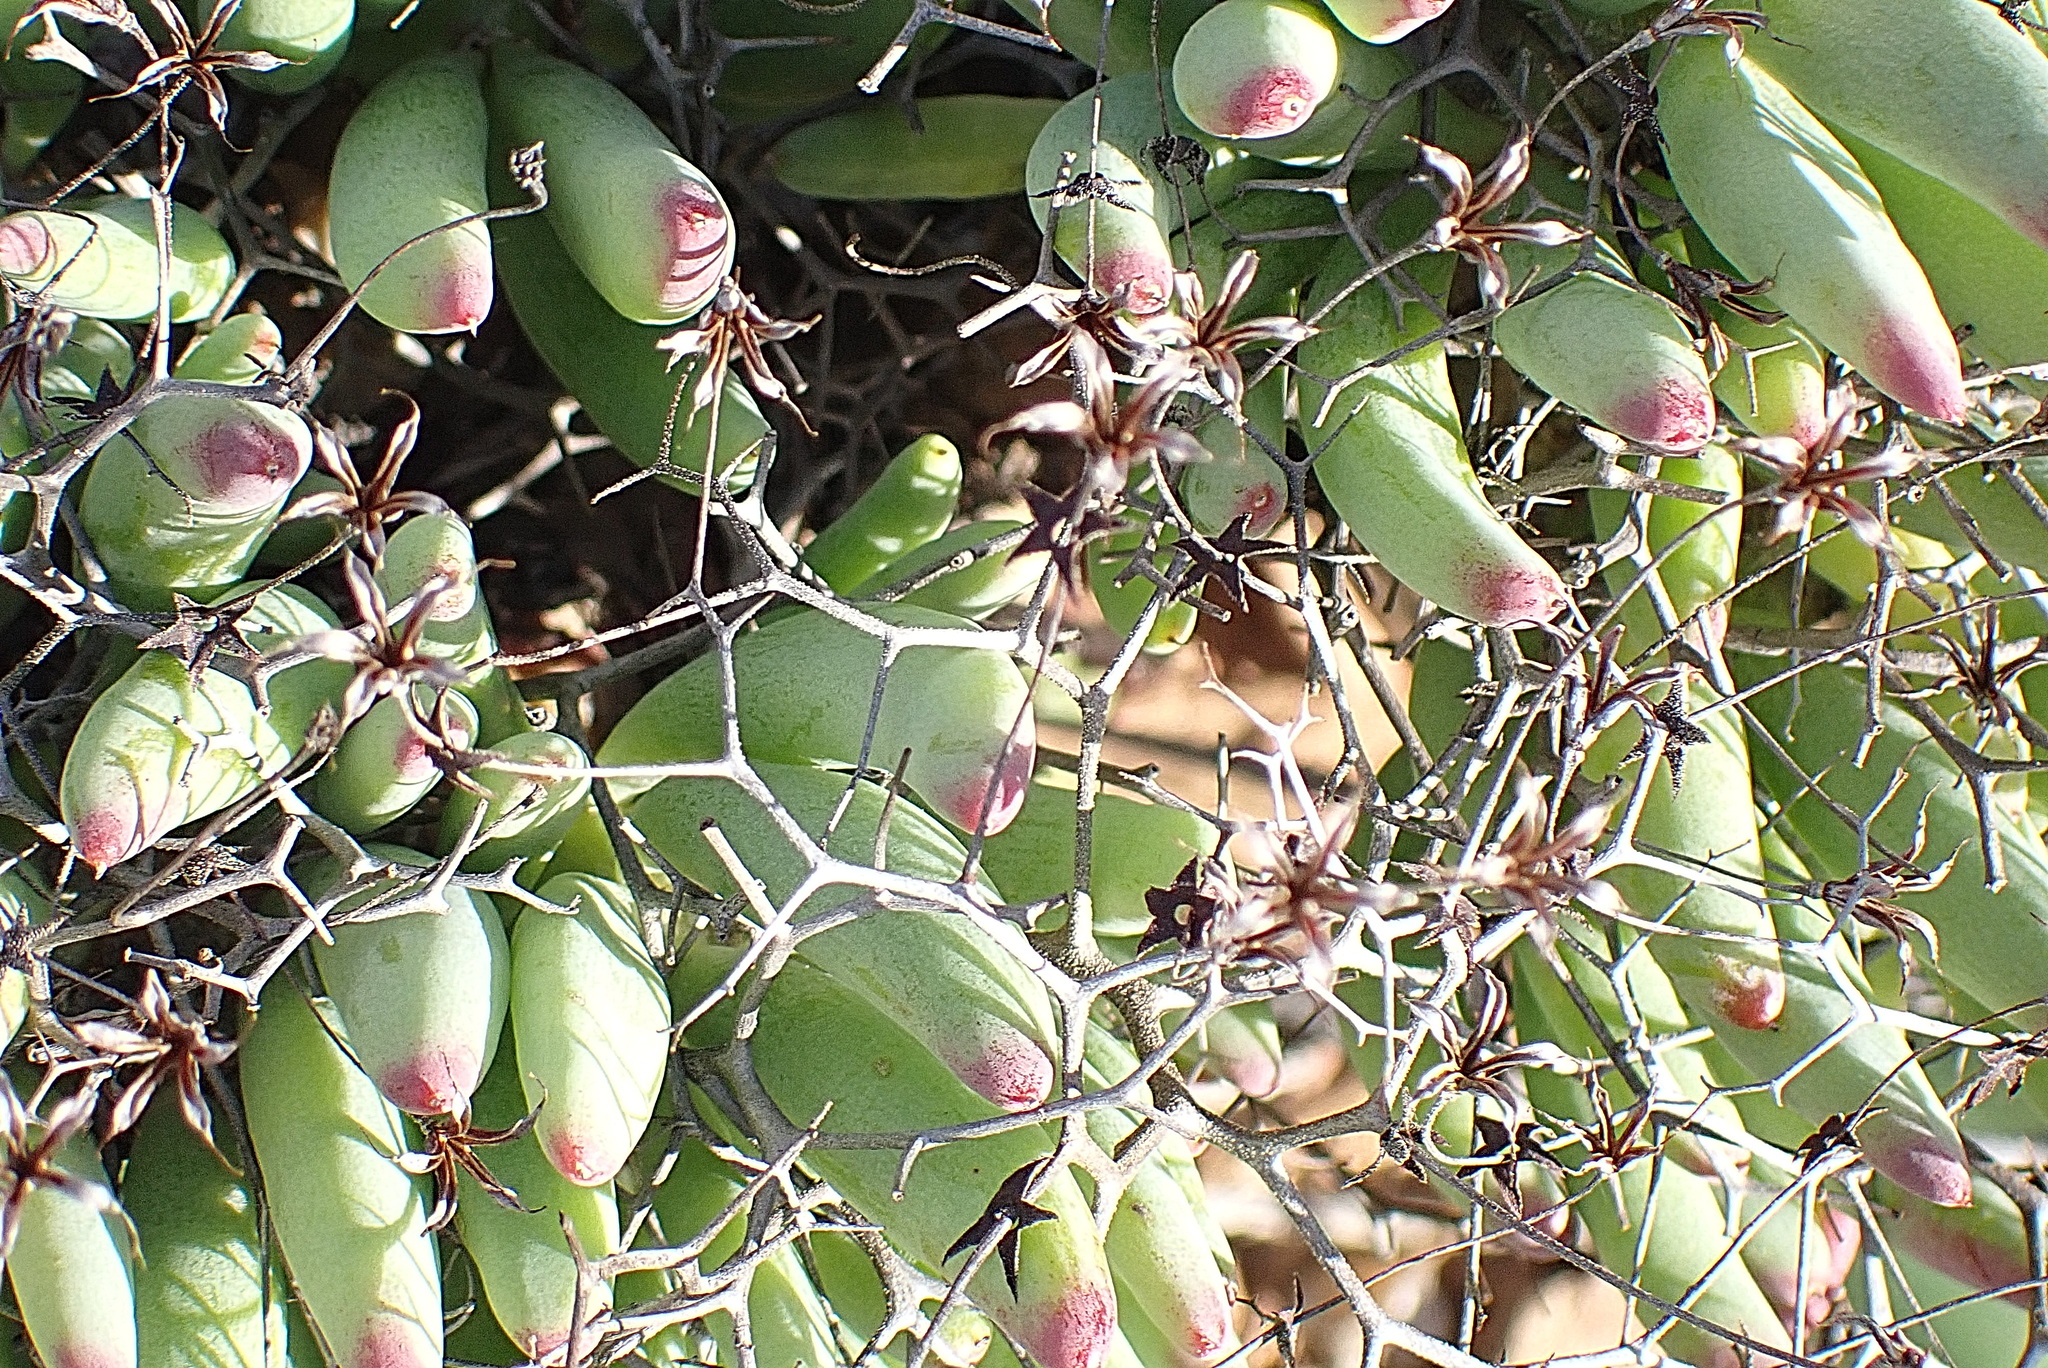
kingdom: Plantae
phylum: Tracheophyta
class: Magnoliopsida
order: Saxifragales
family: Crassulaceae
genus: Tylecodon
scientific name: Tylecodon reticulatus
